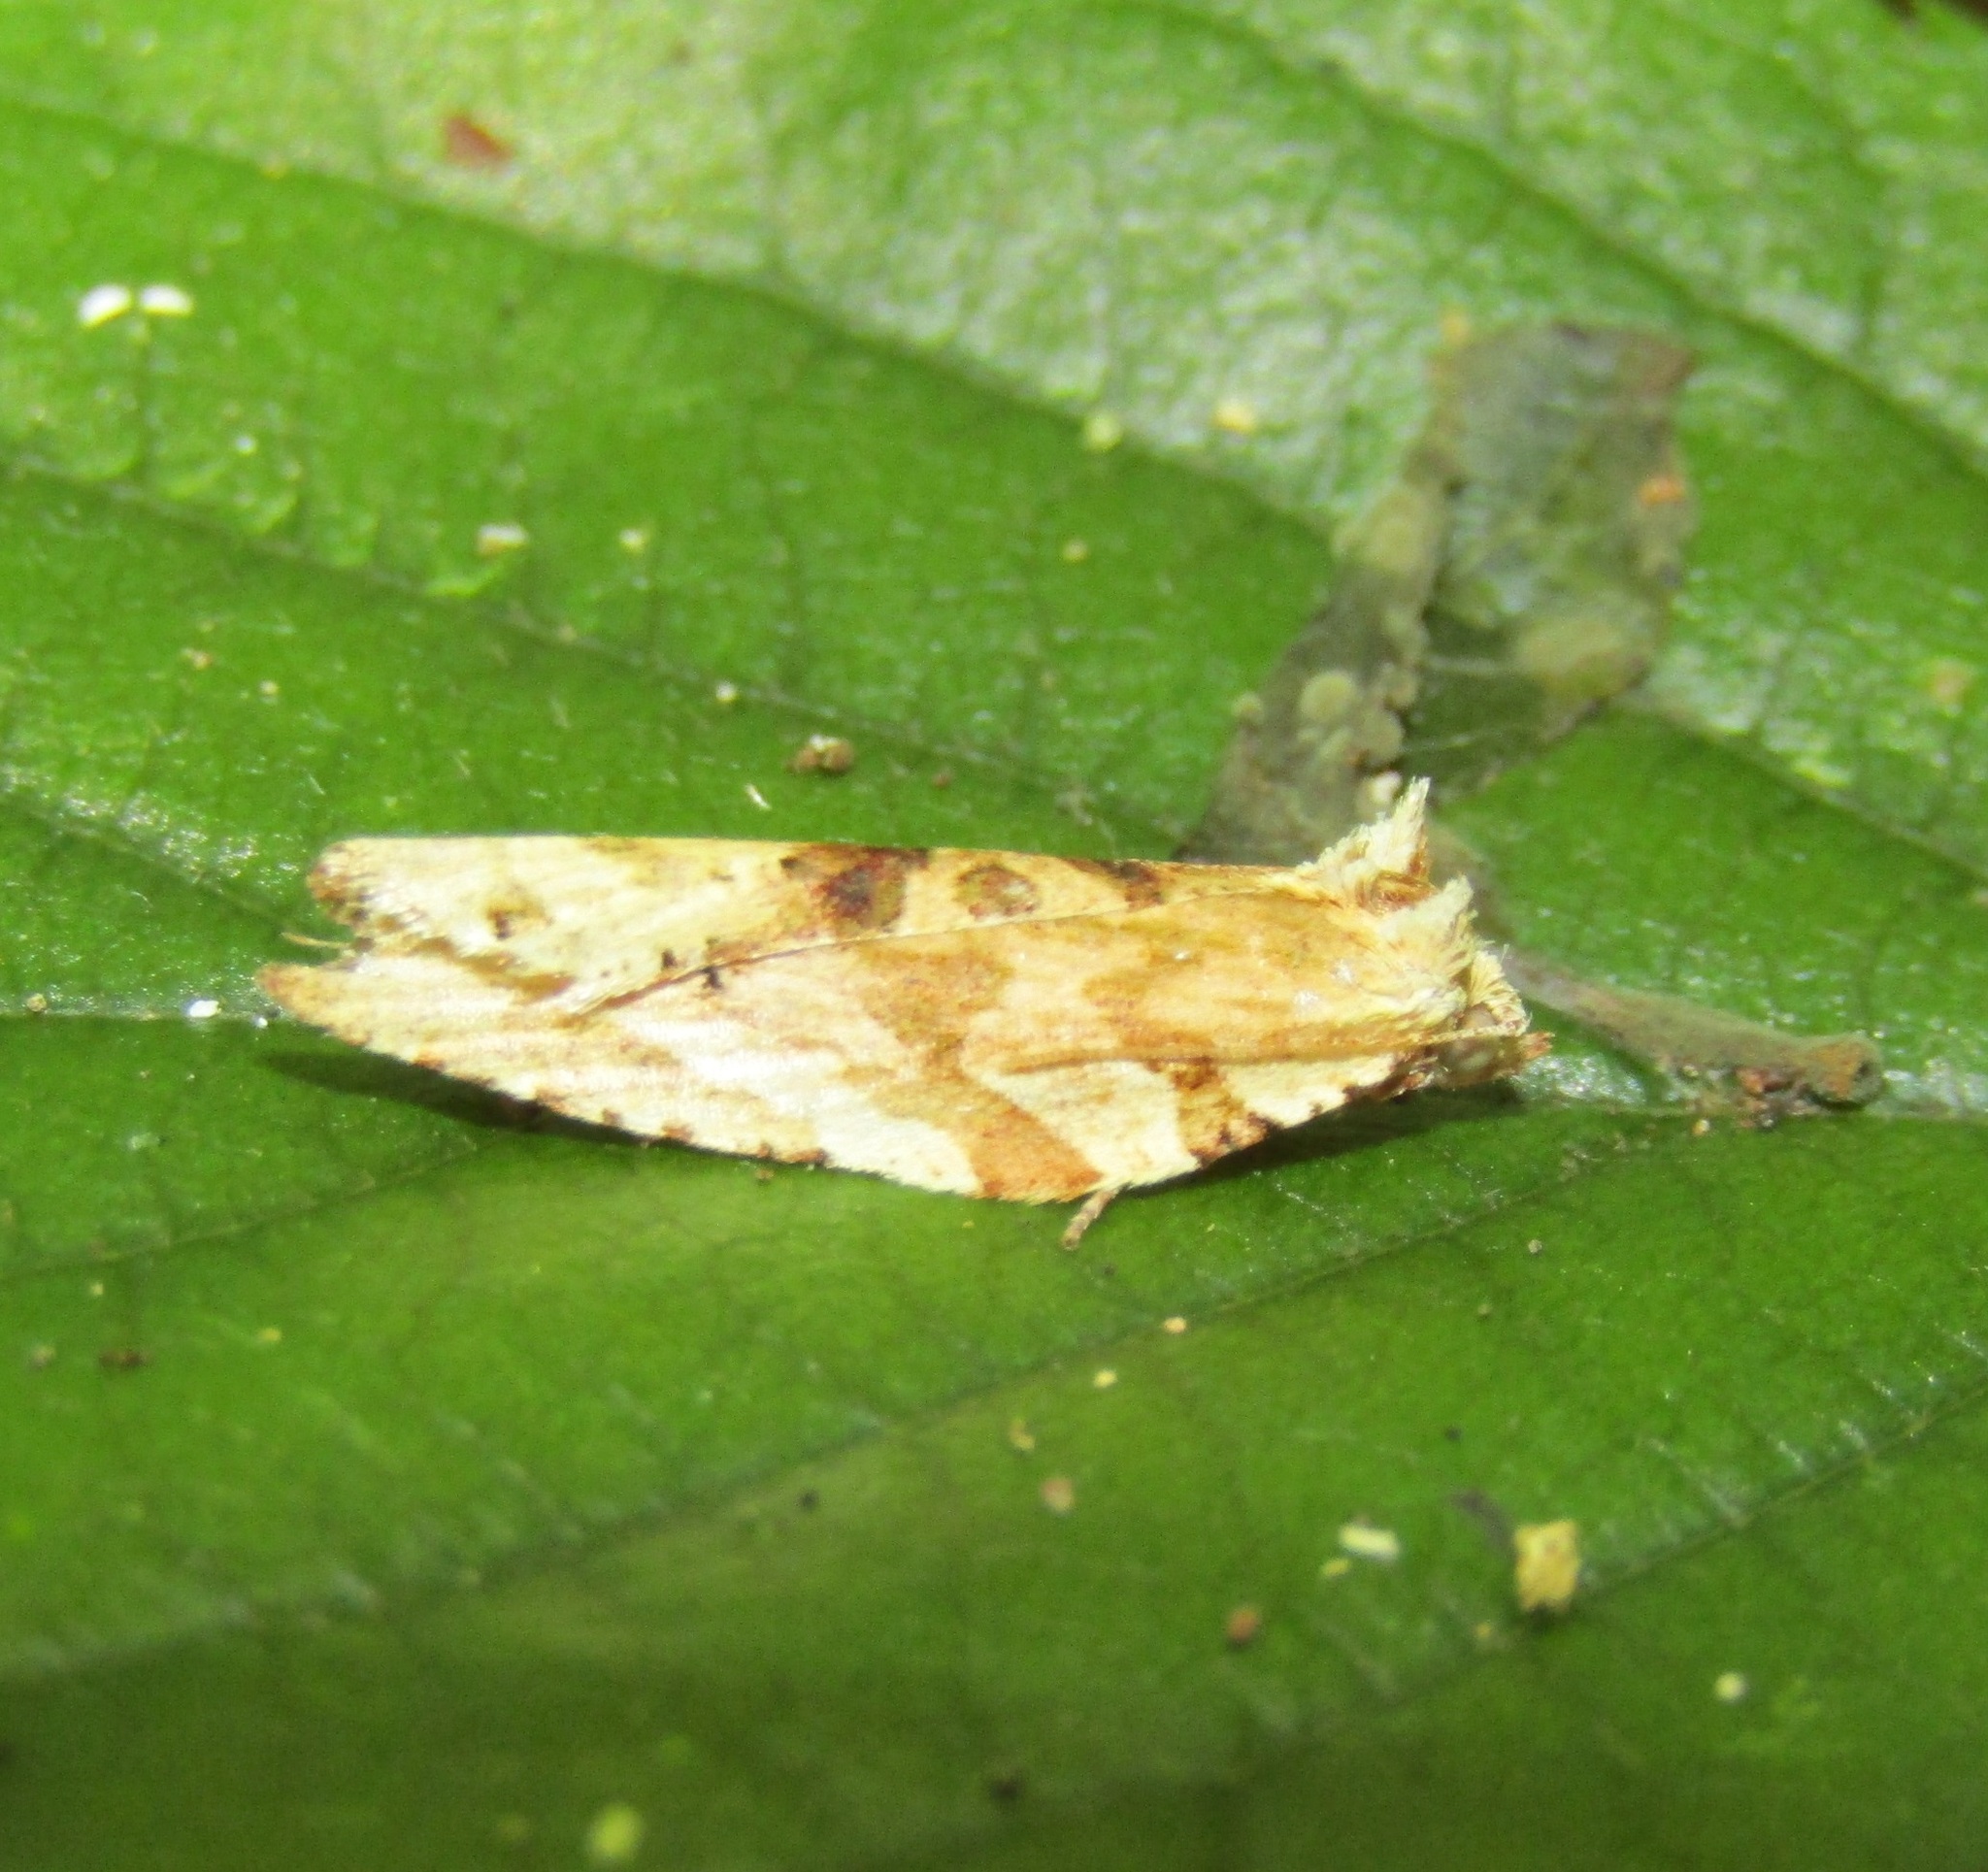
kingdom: Animalia
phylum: Arthropoda
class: Insecta
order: Lepidoptera
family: Tortricidae
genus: Epalxiphora
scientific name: Epalxiphora axenana
